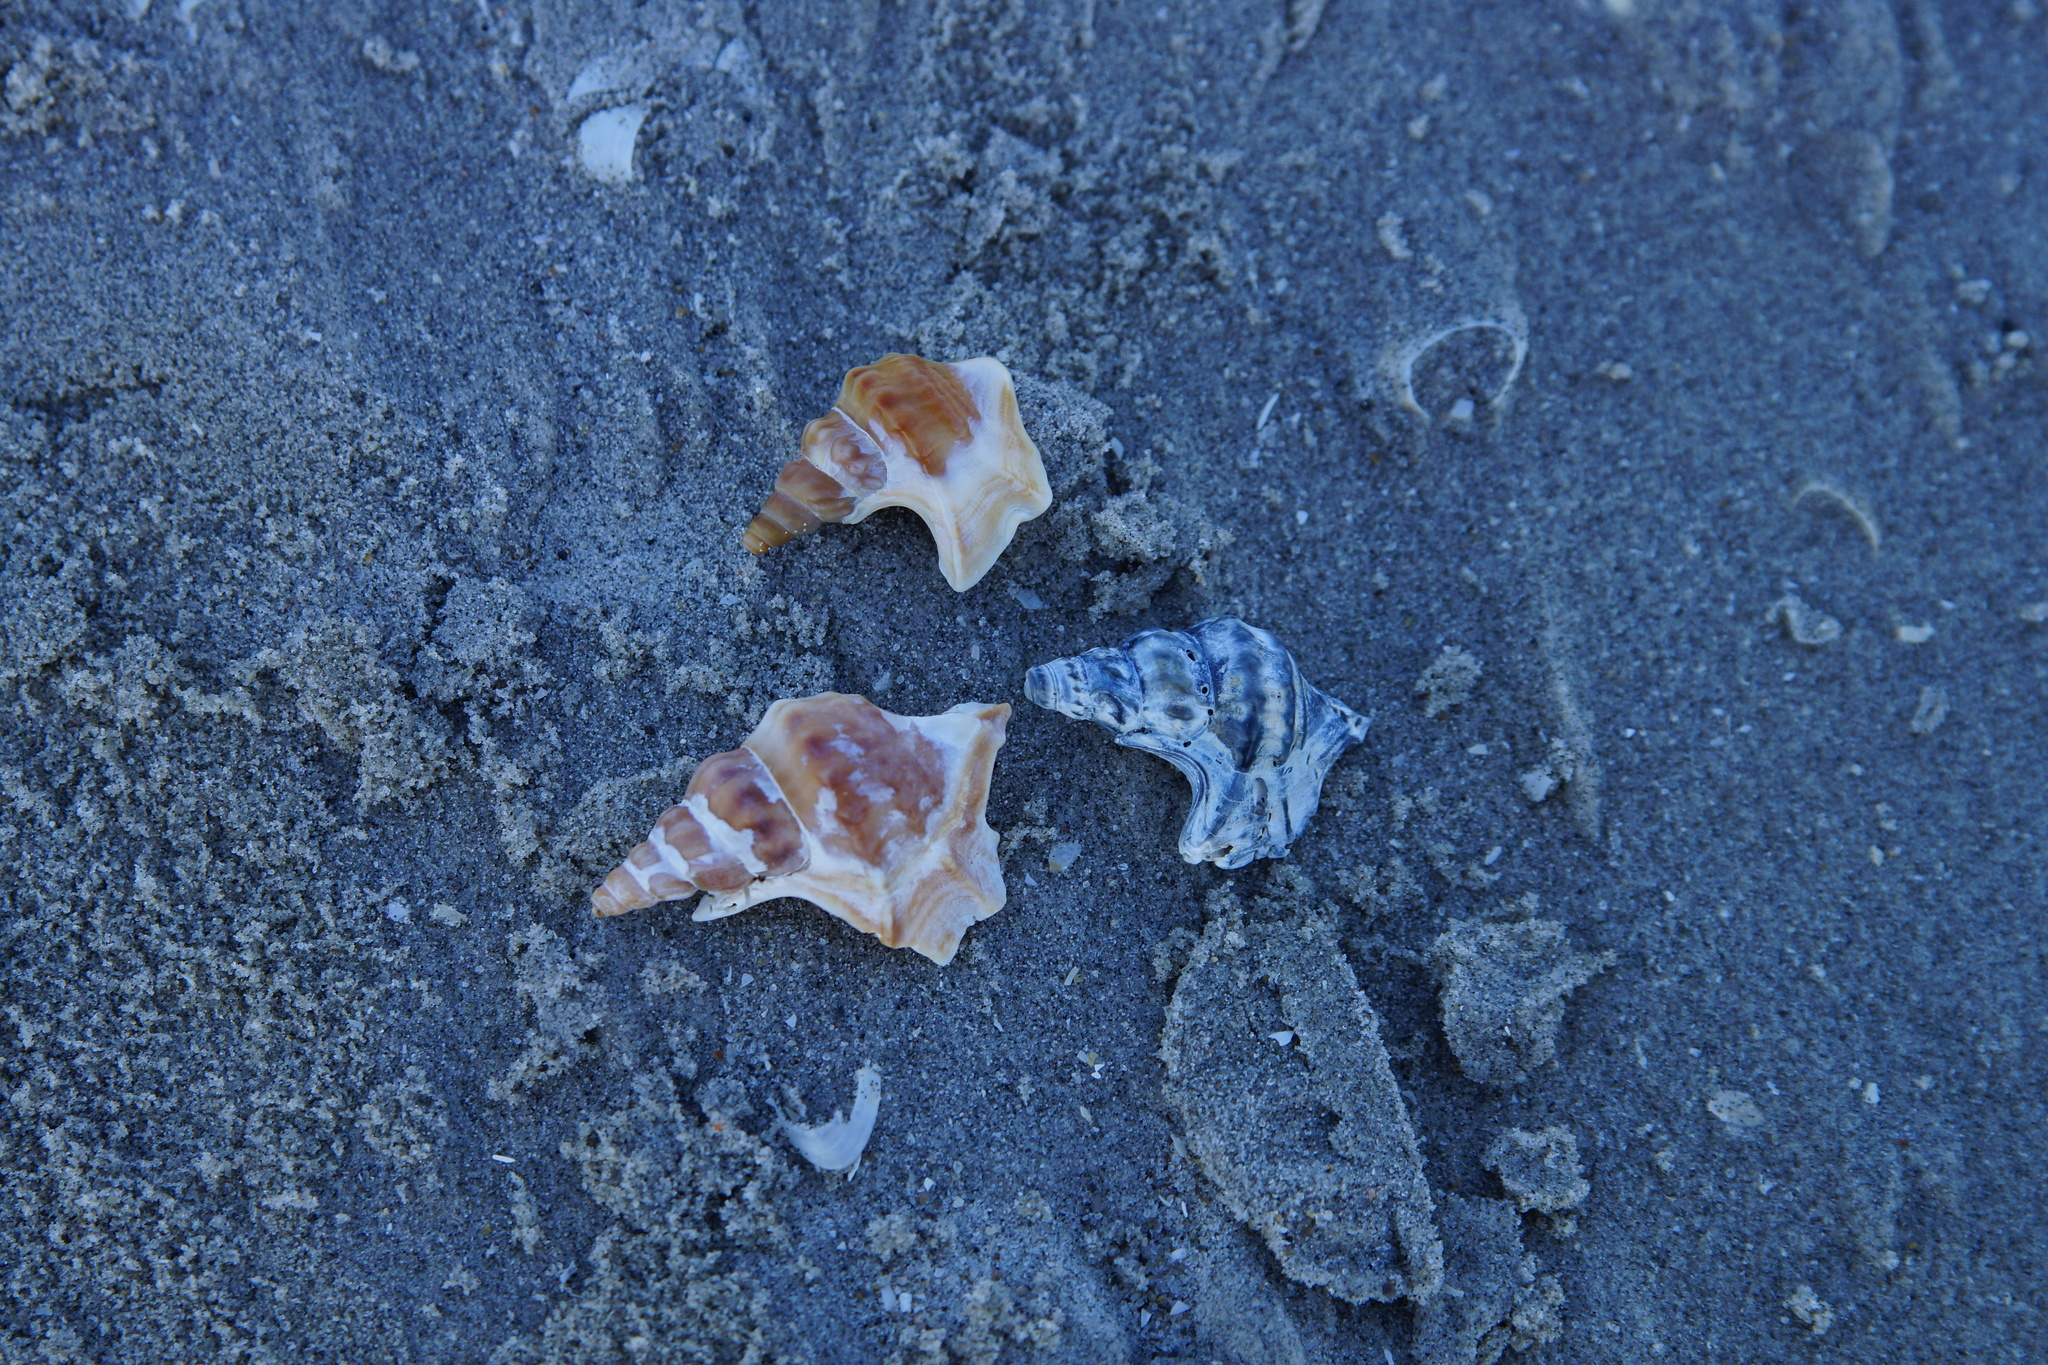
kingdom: Animalia
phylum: Mollusca
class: Gastropoda
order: Littorinimorpha
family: Aporrhaidae
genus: Aporrhais
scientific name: Aporrhais pespelecani
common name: Common pelican’s foot
